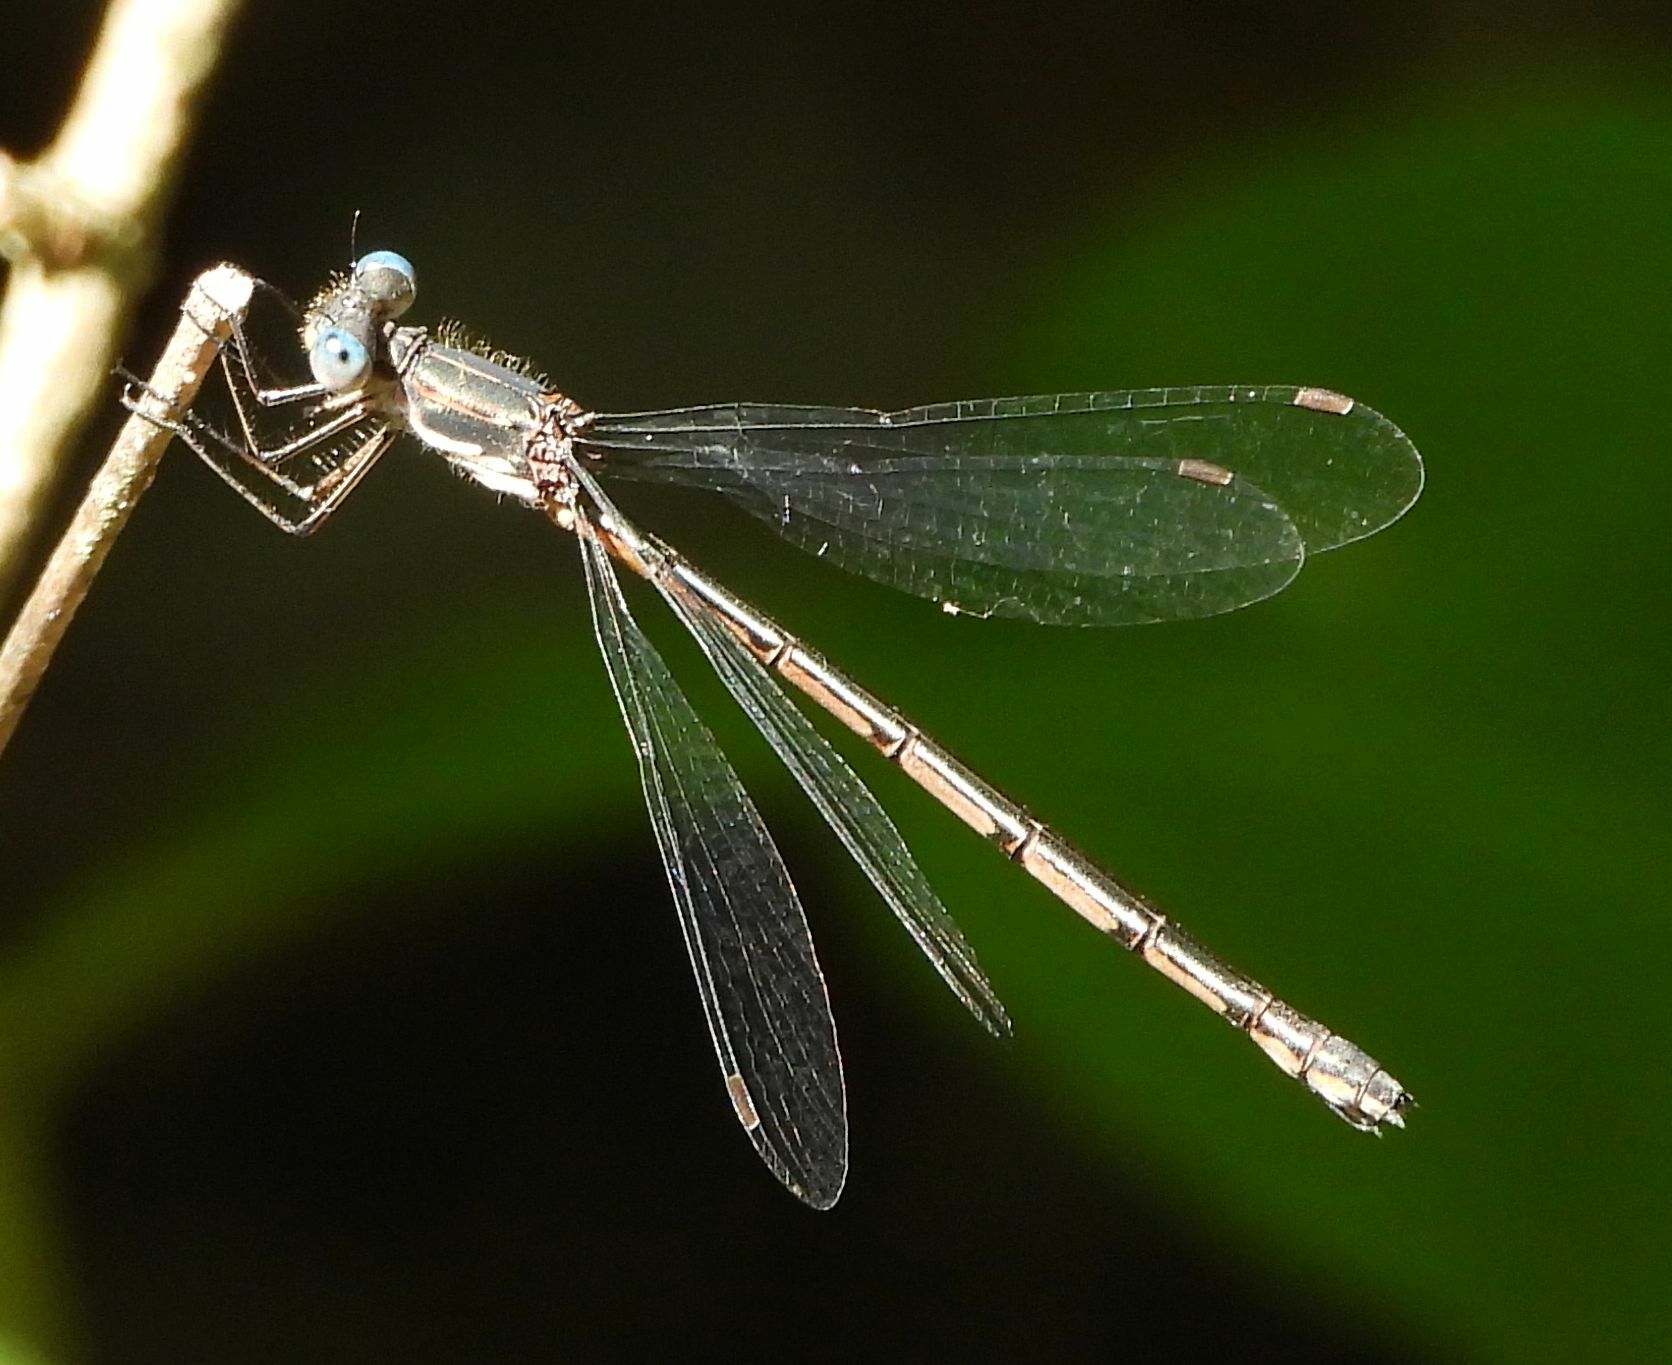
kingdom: Animalia
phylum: Arthropoda
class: Insecta
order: Odonata
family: Lestidae
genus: Lestes
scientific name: Lestes congener
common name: Spotted spreadwing
